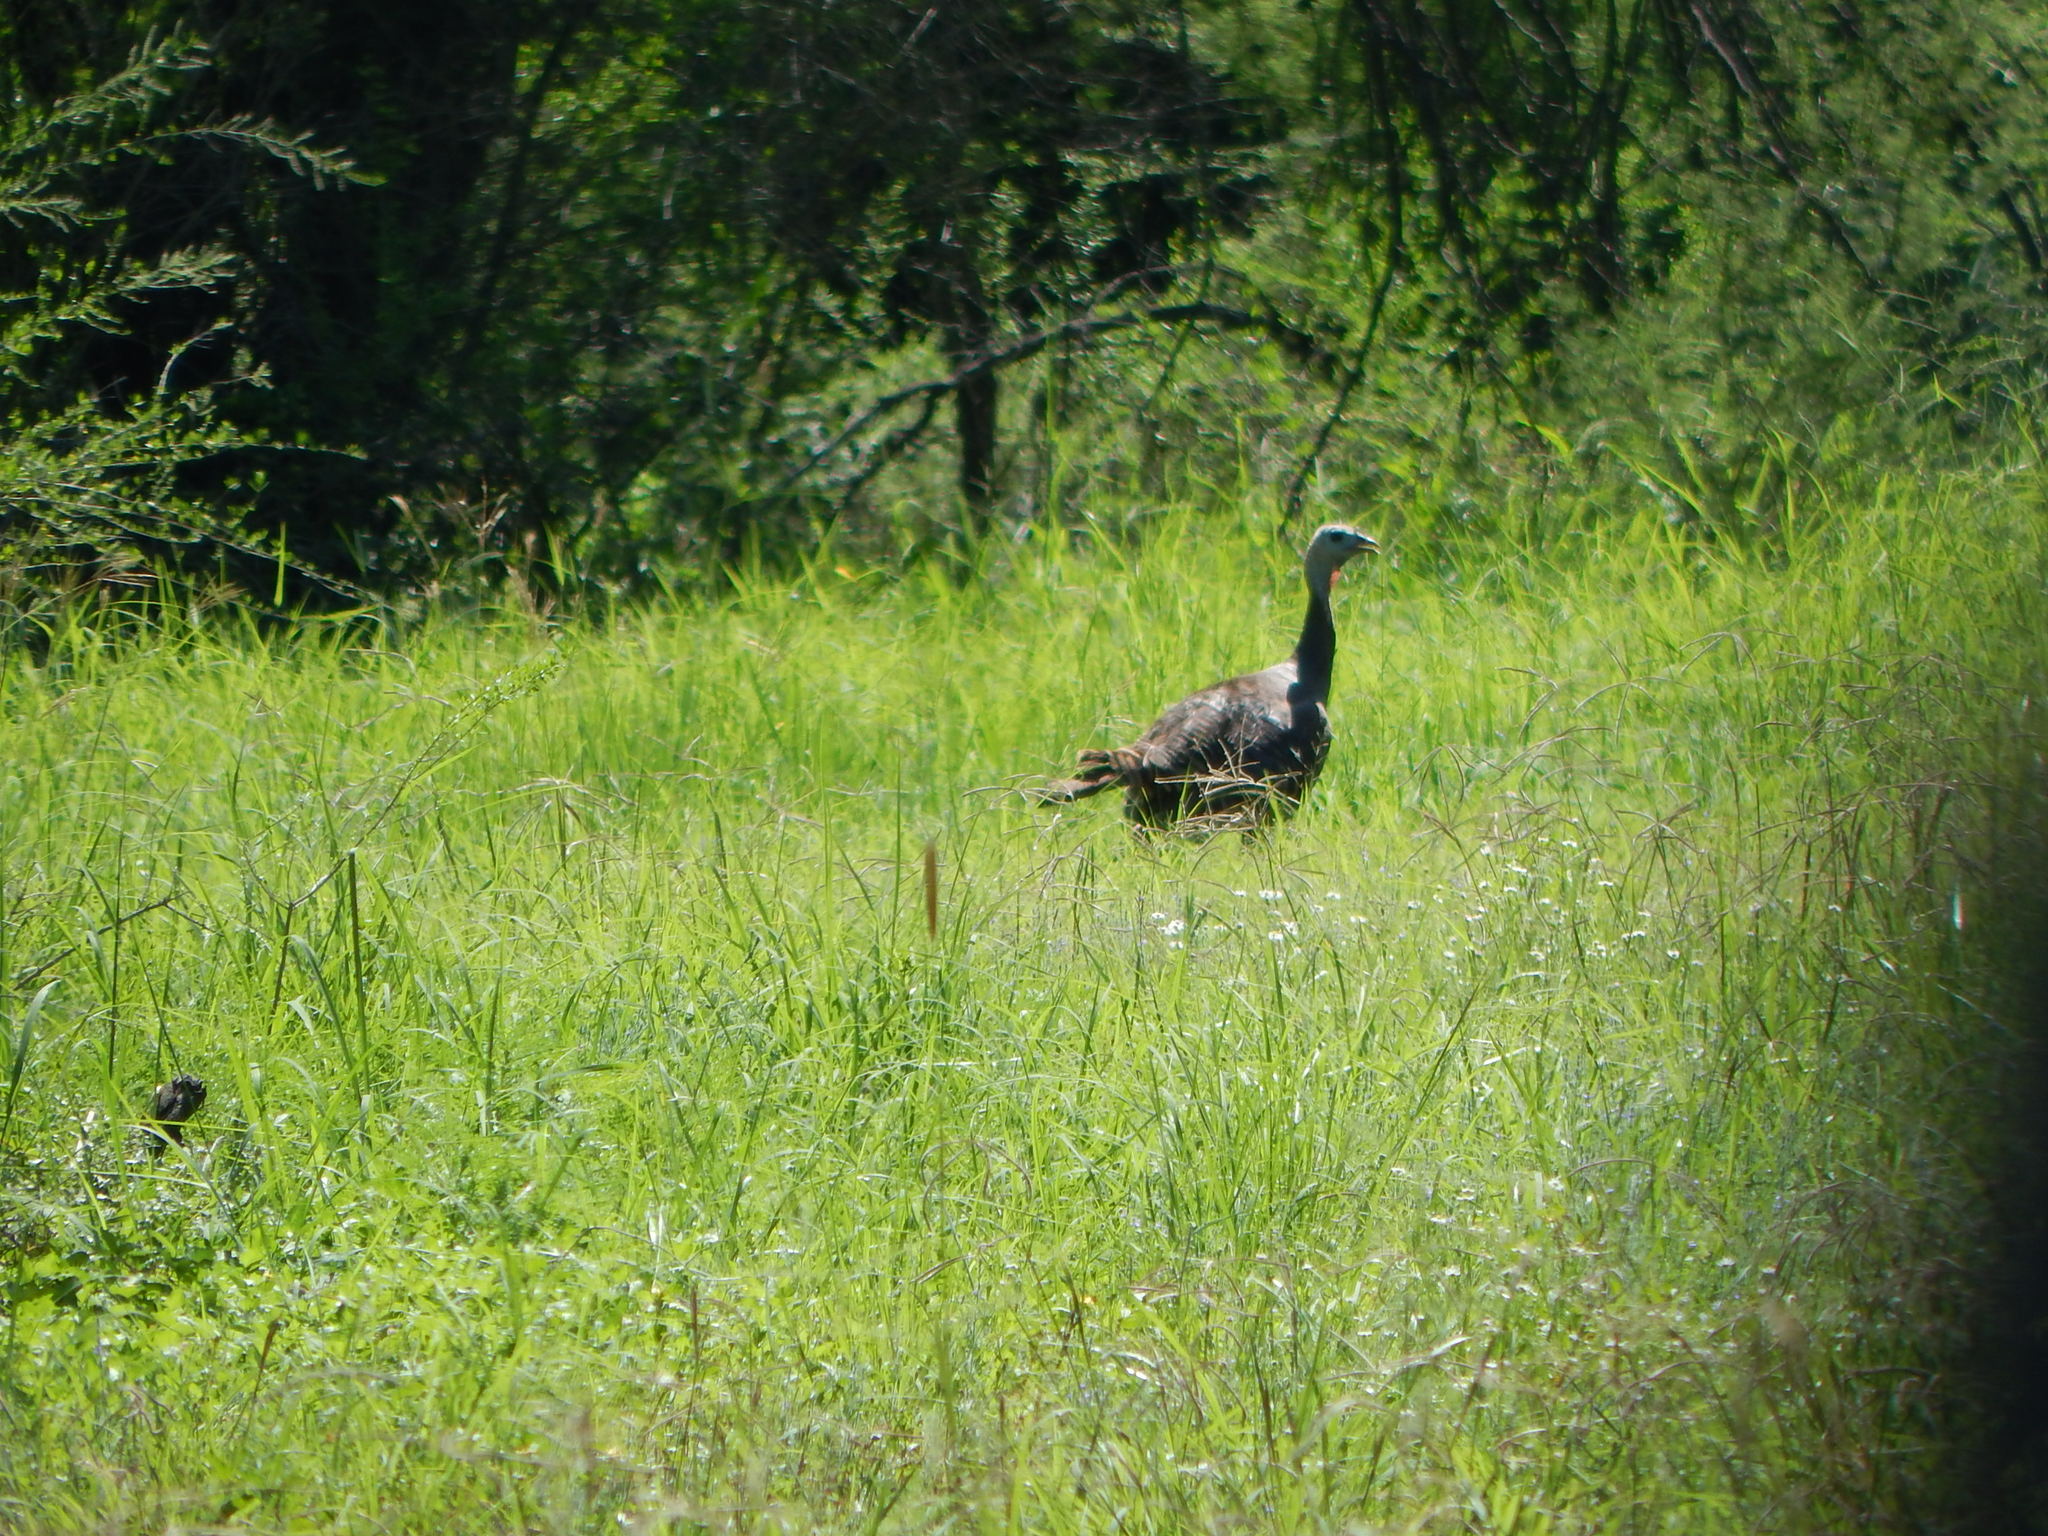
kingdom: Animalia
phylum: Chordata
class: Aves
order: Galliformes
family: Phasianidae
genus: Meleagris
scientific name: Meleagris gallopavo
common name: Wild turkey
